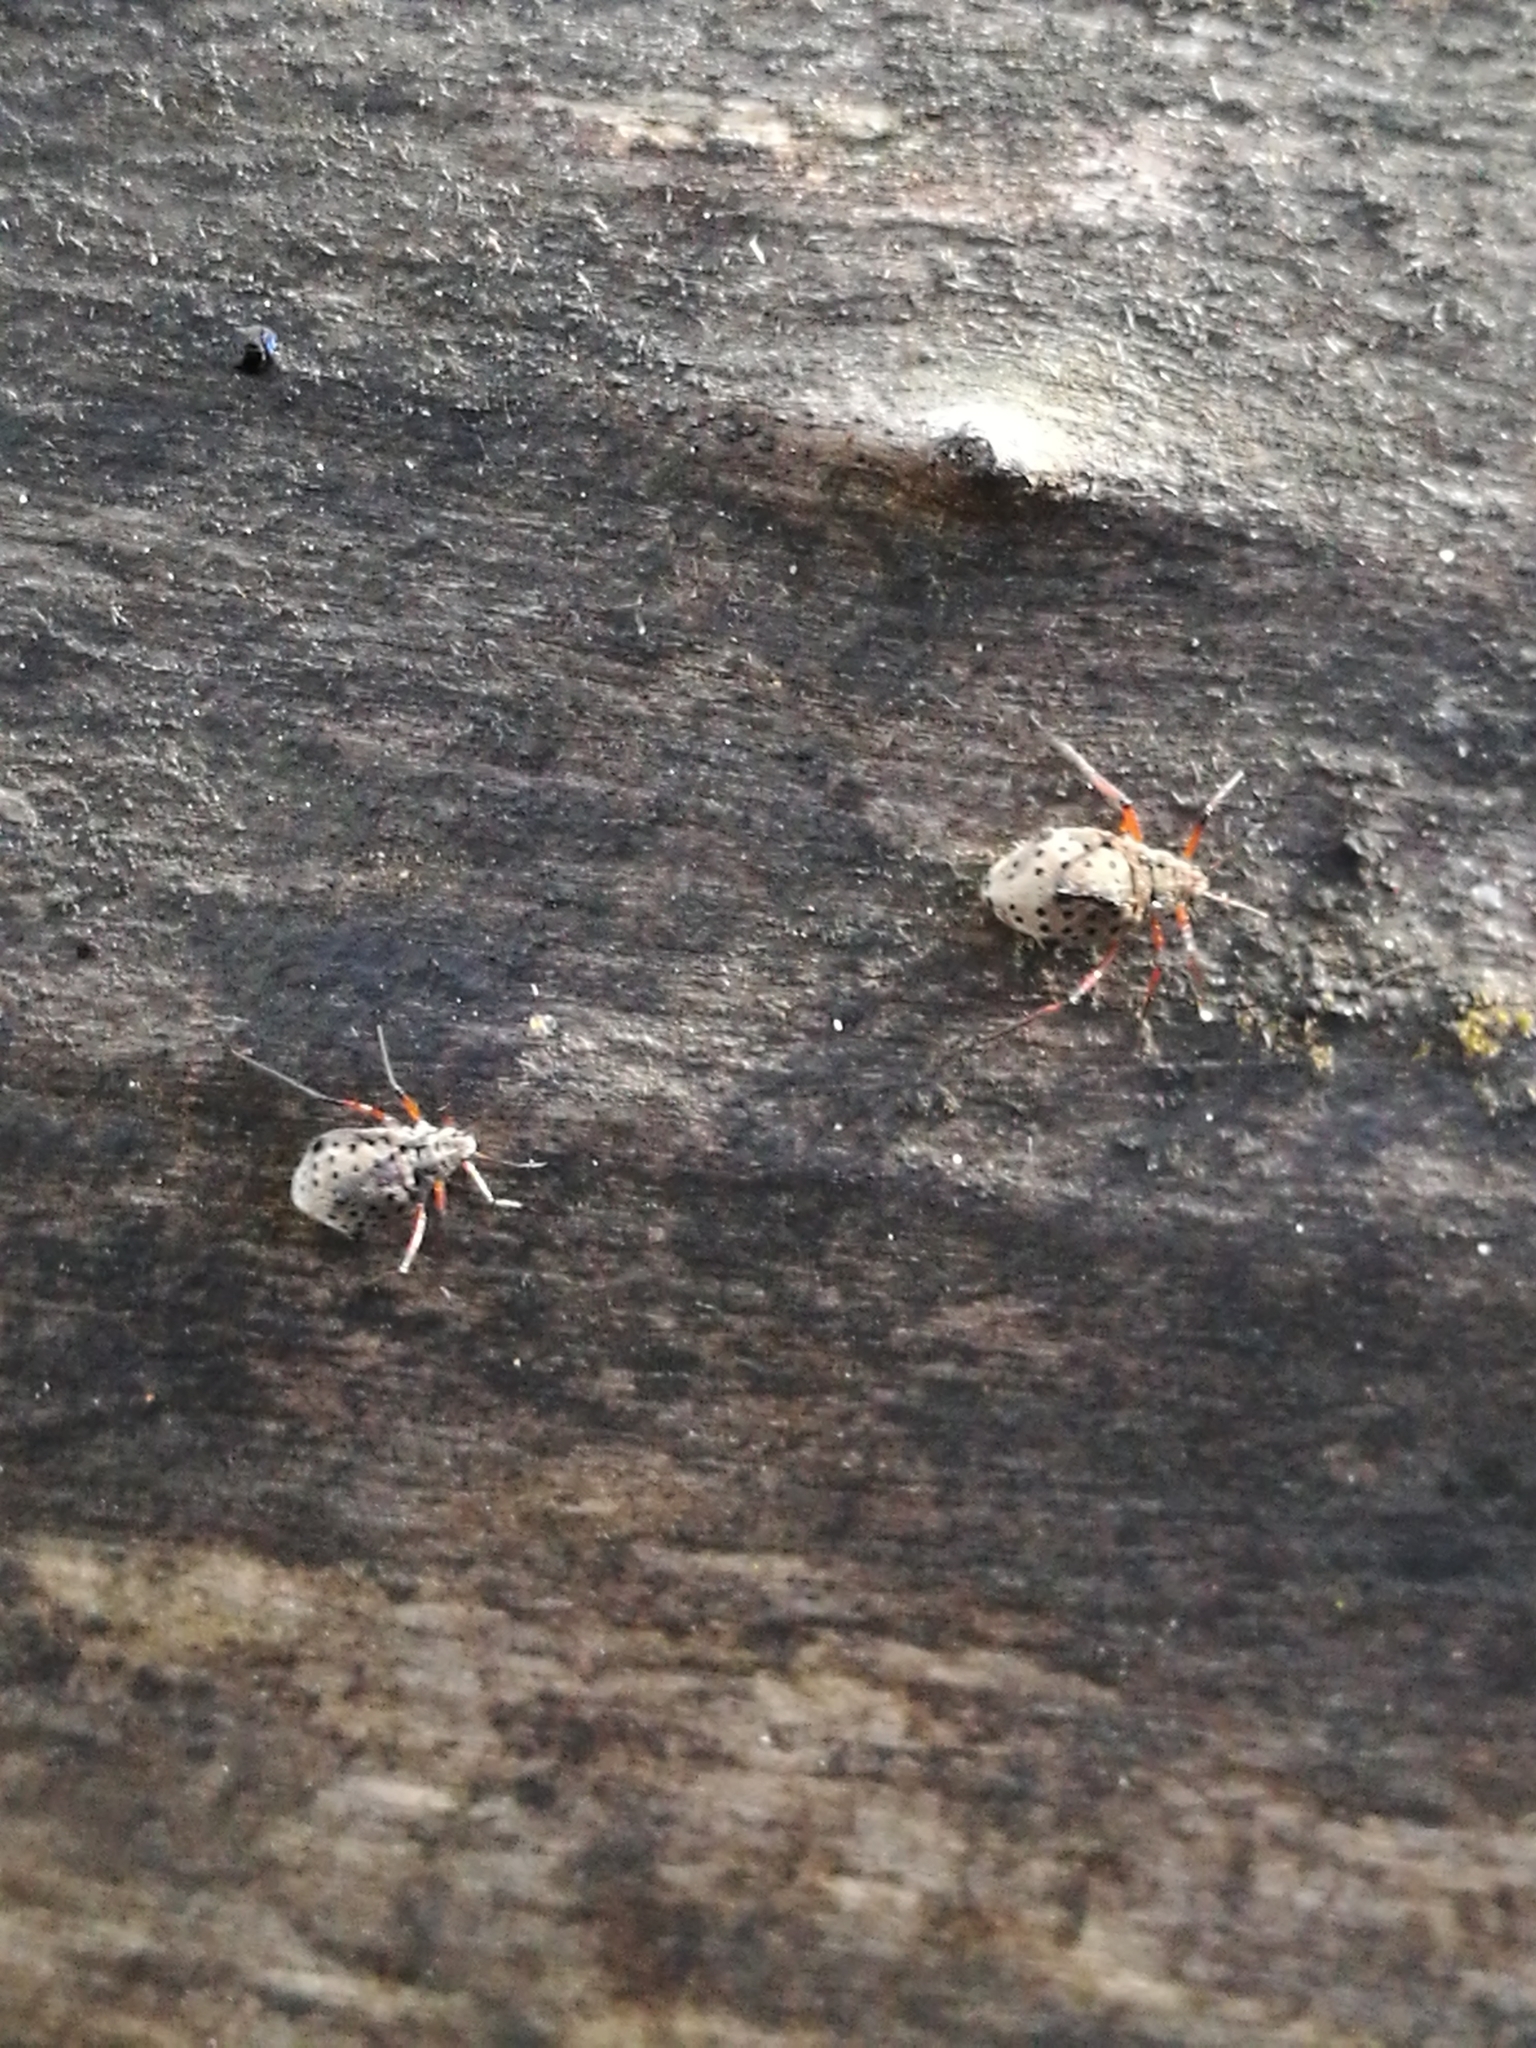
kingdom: Animalia
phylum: Arthropoda
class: Insecta
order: Hemiptera
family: Aphididae
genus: Tuberolachnus
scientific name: Tuberolachnus salignus
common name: Giant willow aphid
